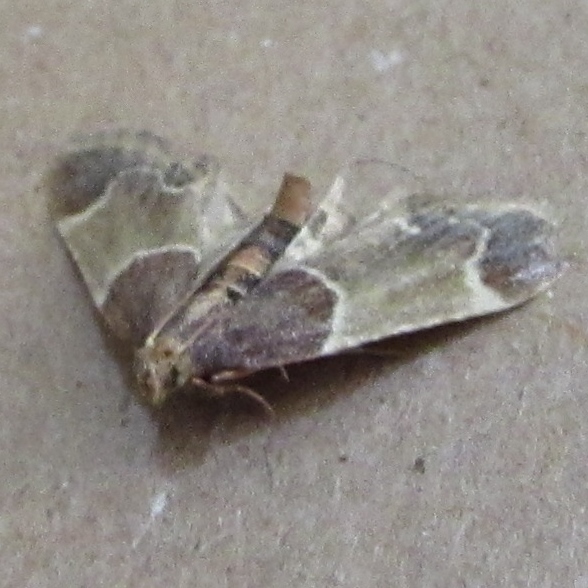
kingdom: Animalia
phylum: Arthropoda
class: Insecta
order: Lepidoptera
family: Pyralidae
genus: Pyralis
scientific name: Pyralis farinalis
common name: Meal moth
